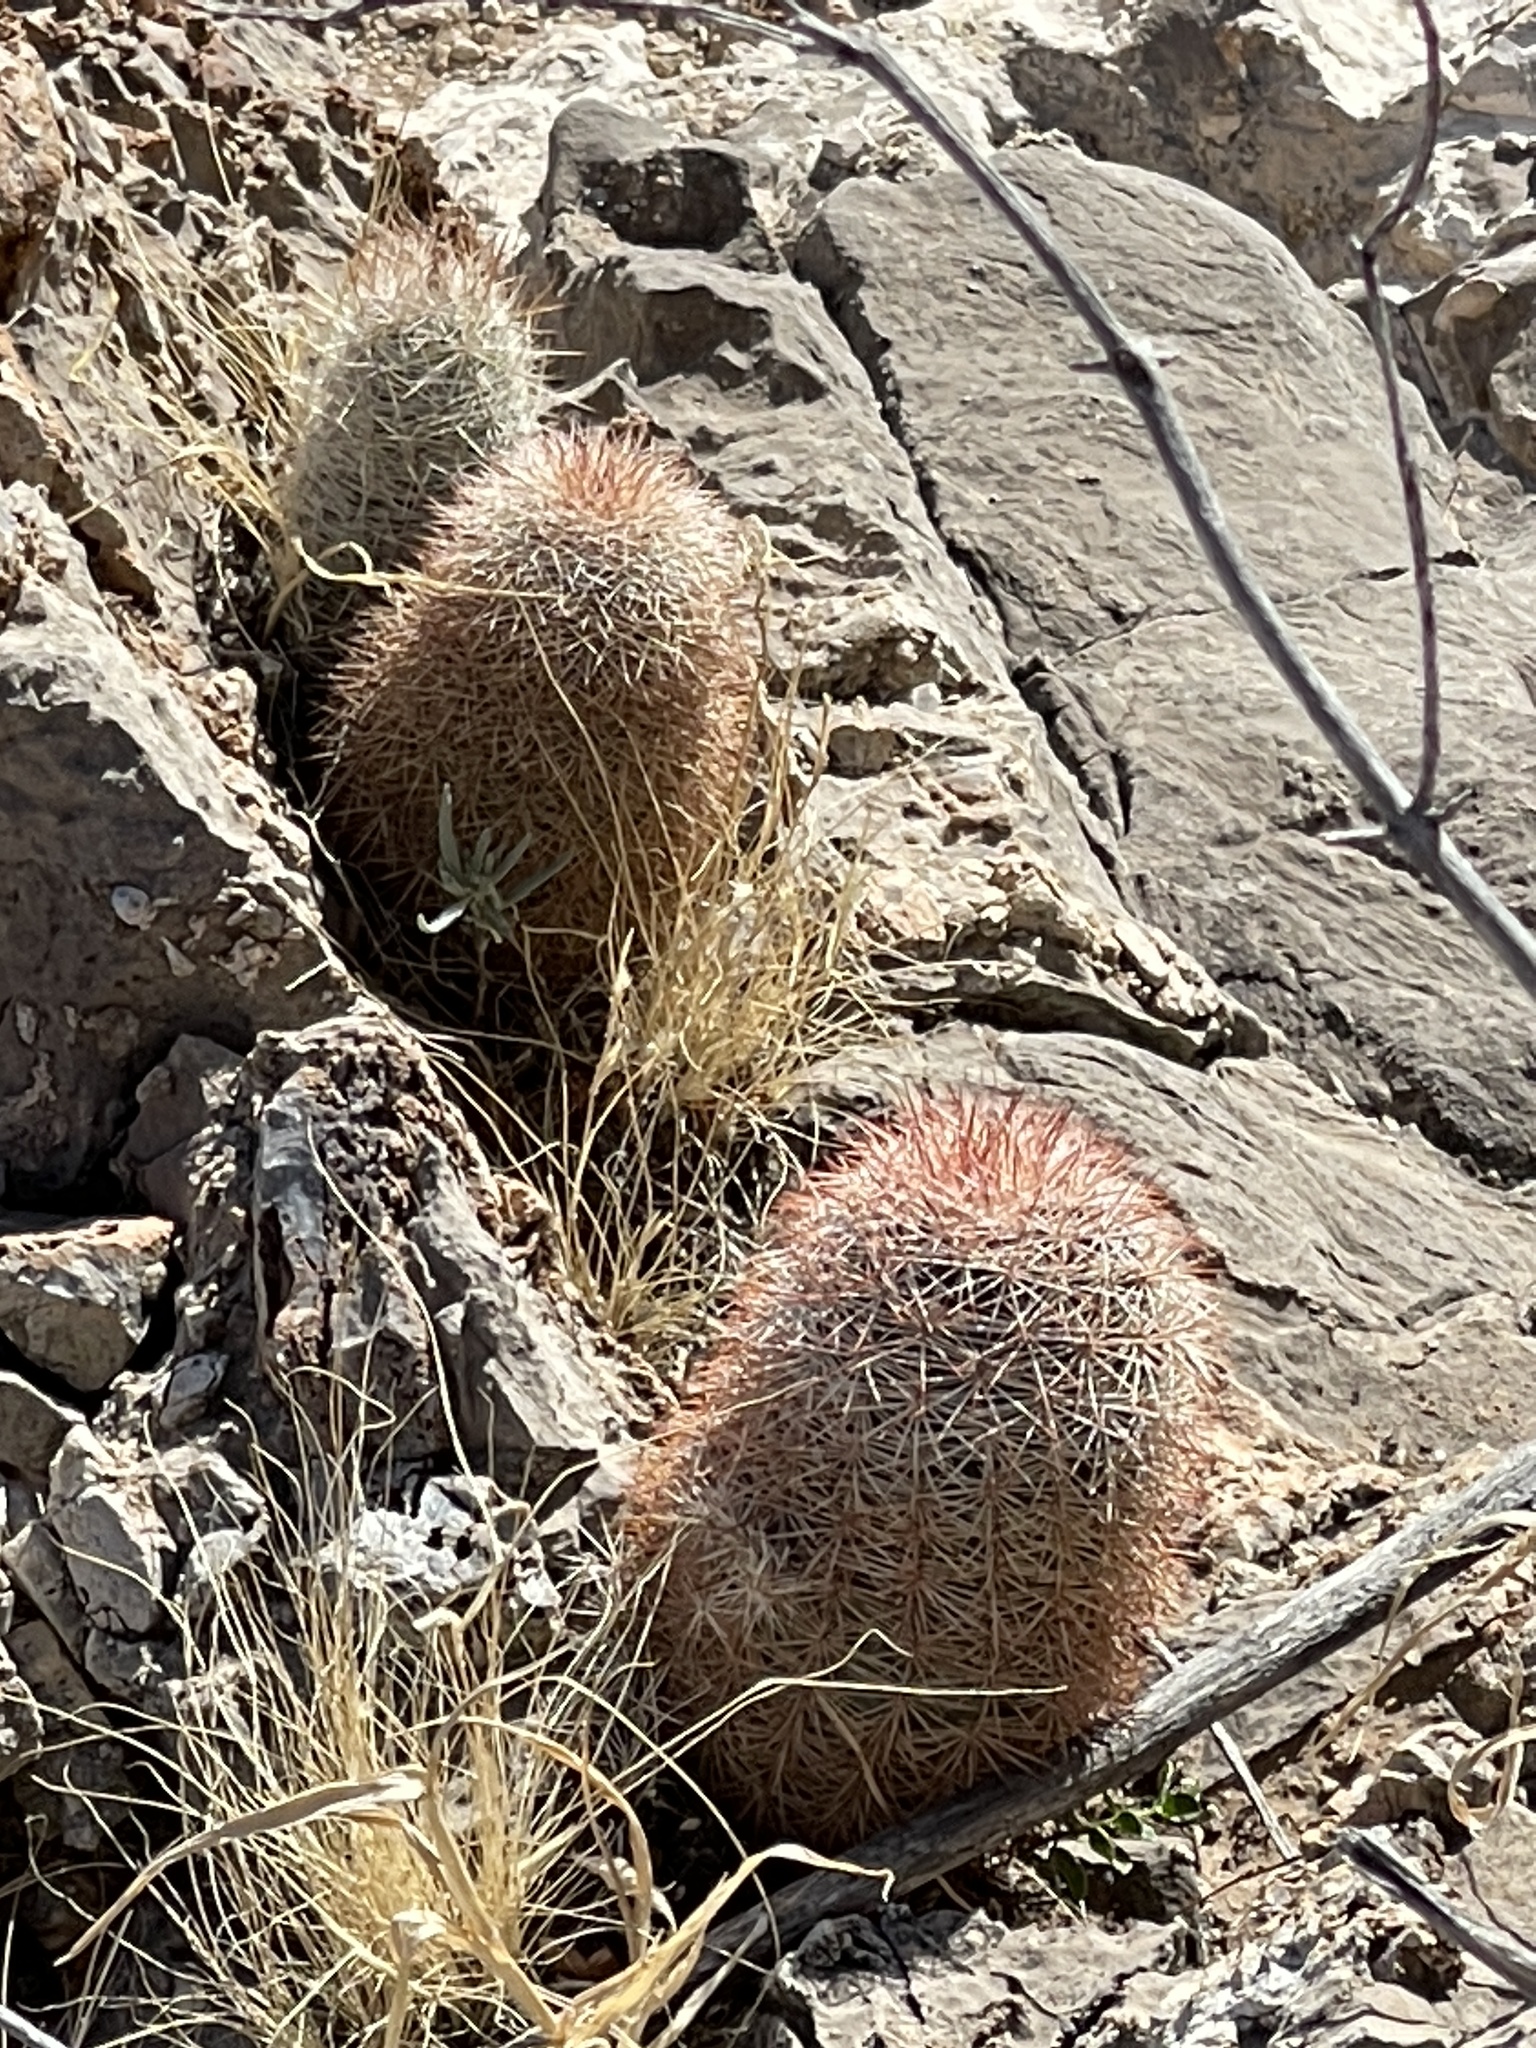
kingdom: Plantae
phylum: Tracheophyta
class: Magnoliopsida
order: Caryophyllales
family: Cactaceae
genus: Echinocereus
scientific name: Echinocereus dasyacanthus
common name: Spiny hedgehog cactus
